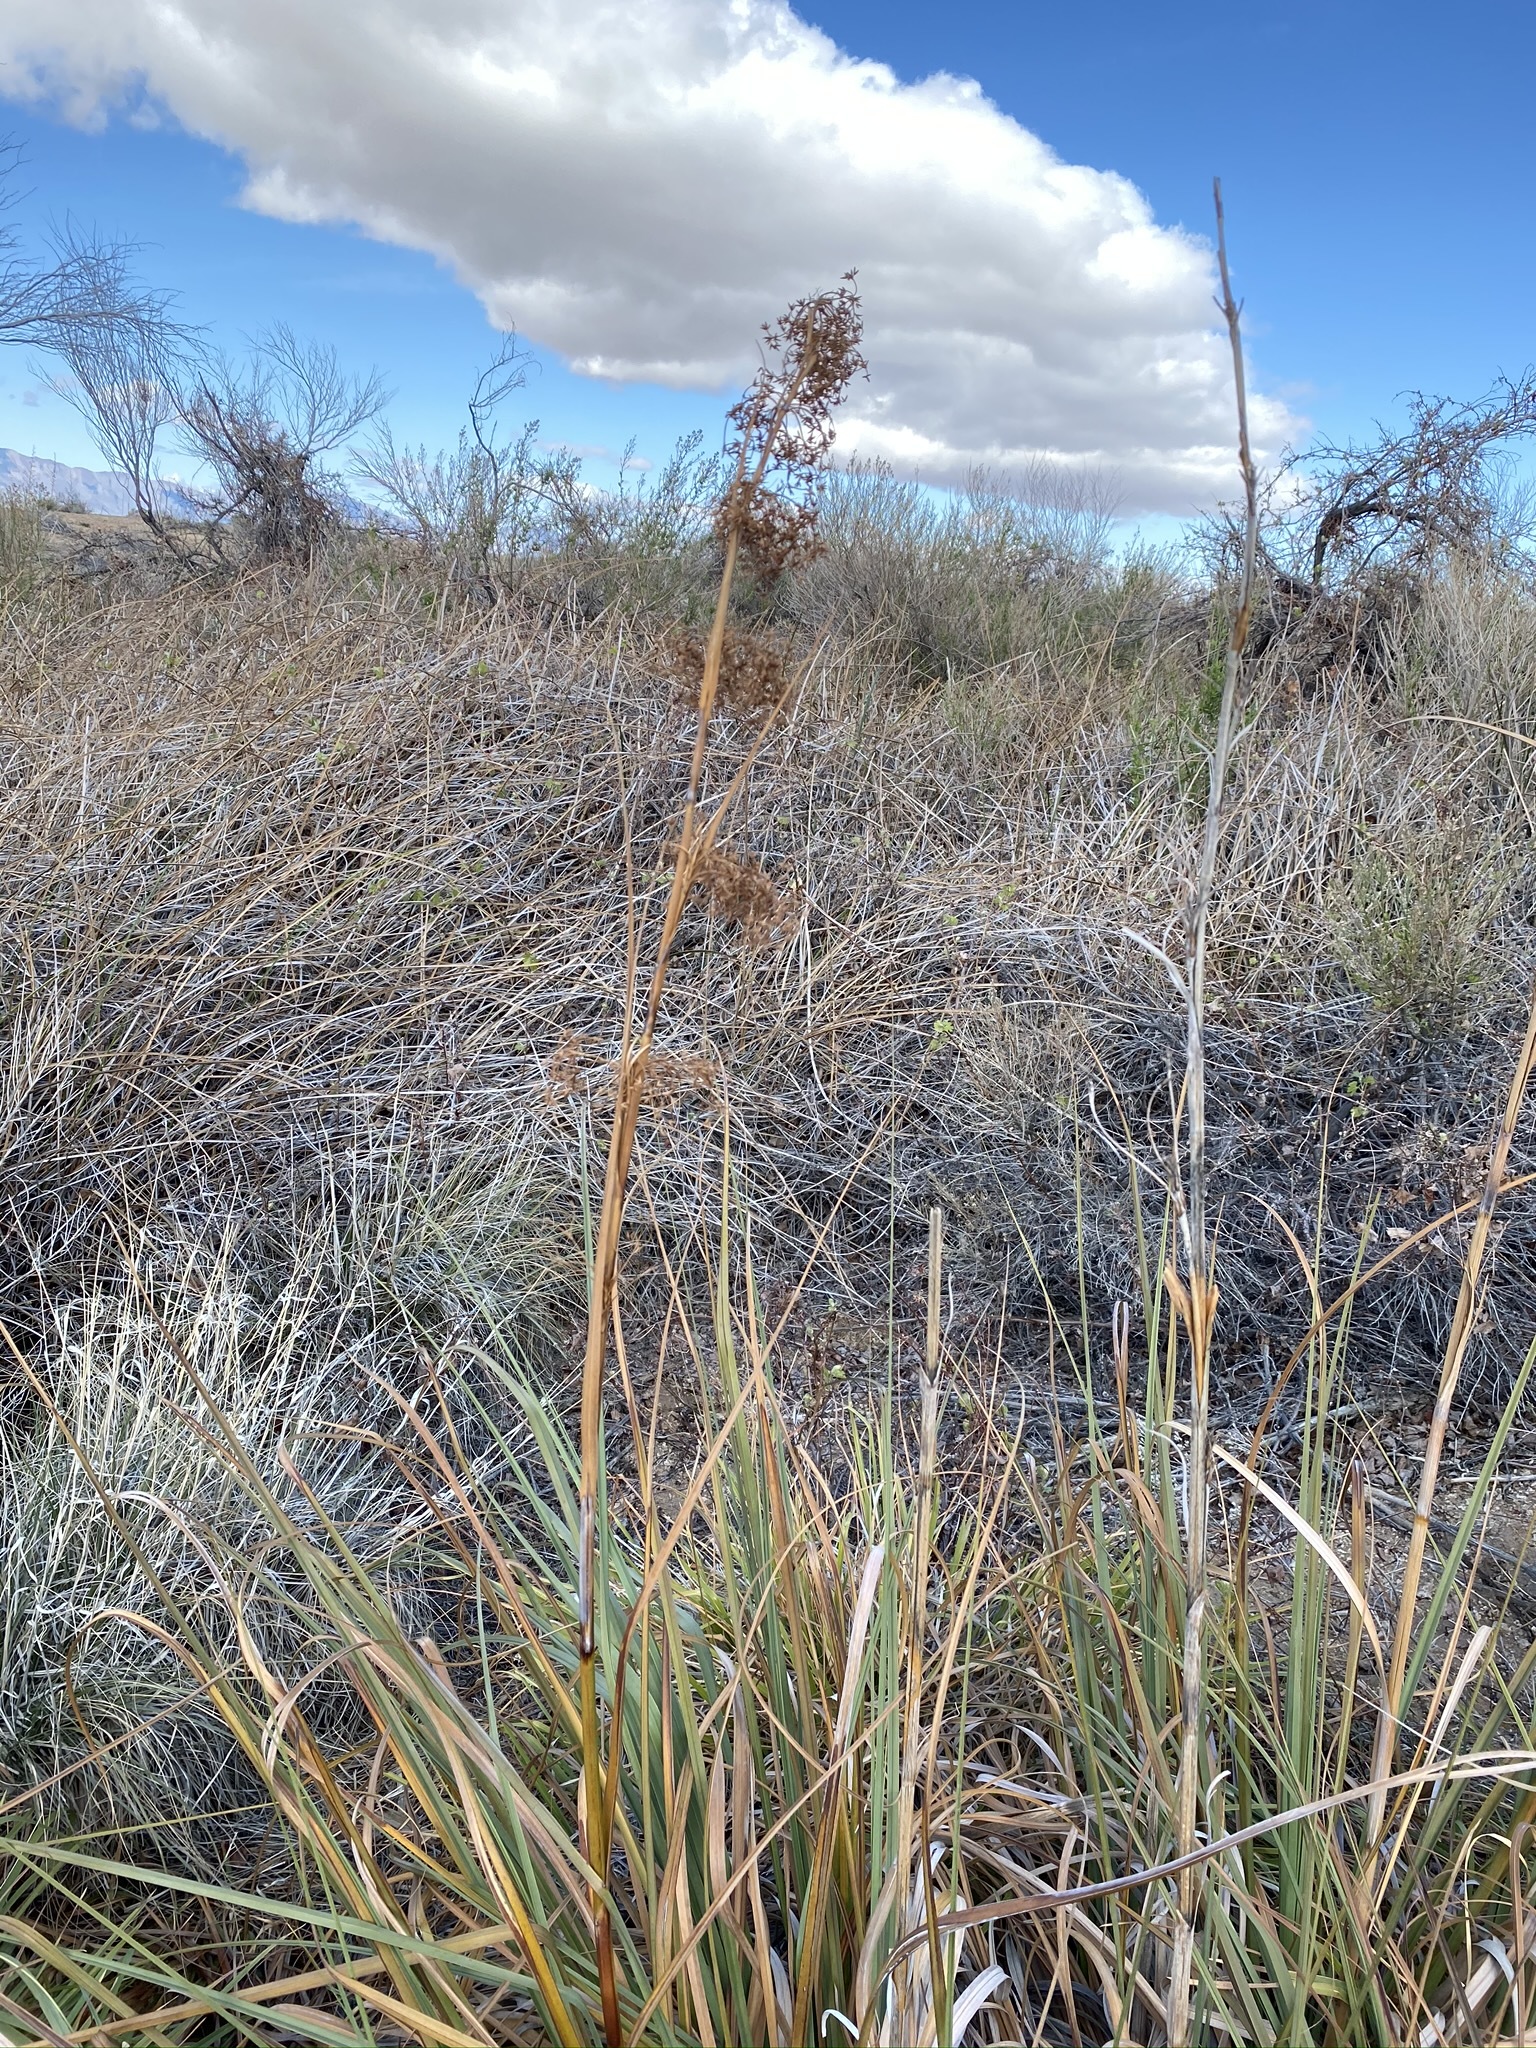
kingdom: Plantae
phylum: Tracheophyta
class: Liliopsida
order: Poales
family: Cyperaceae
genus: Cladium
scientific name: Cladium mariscus
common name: Great fen-sedge
